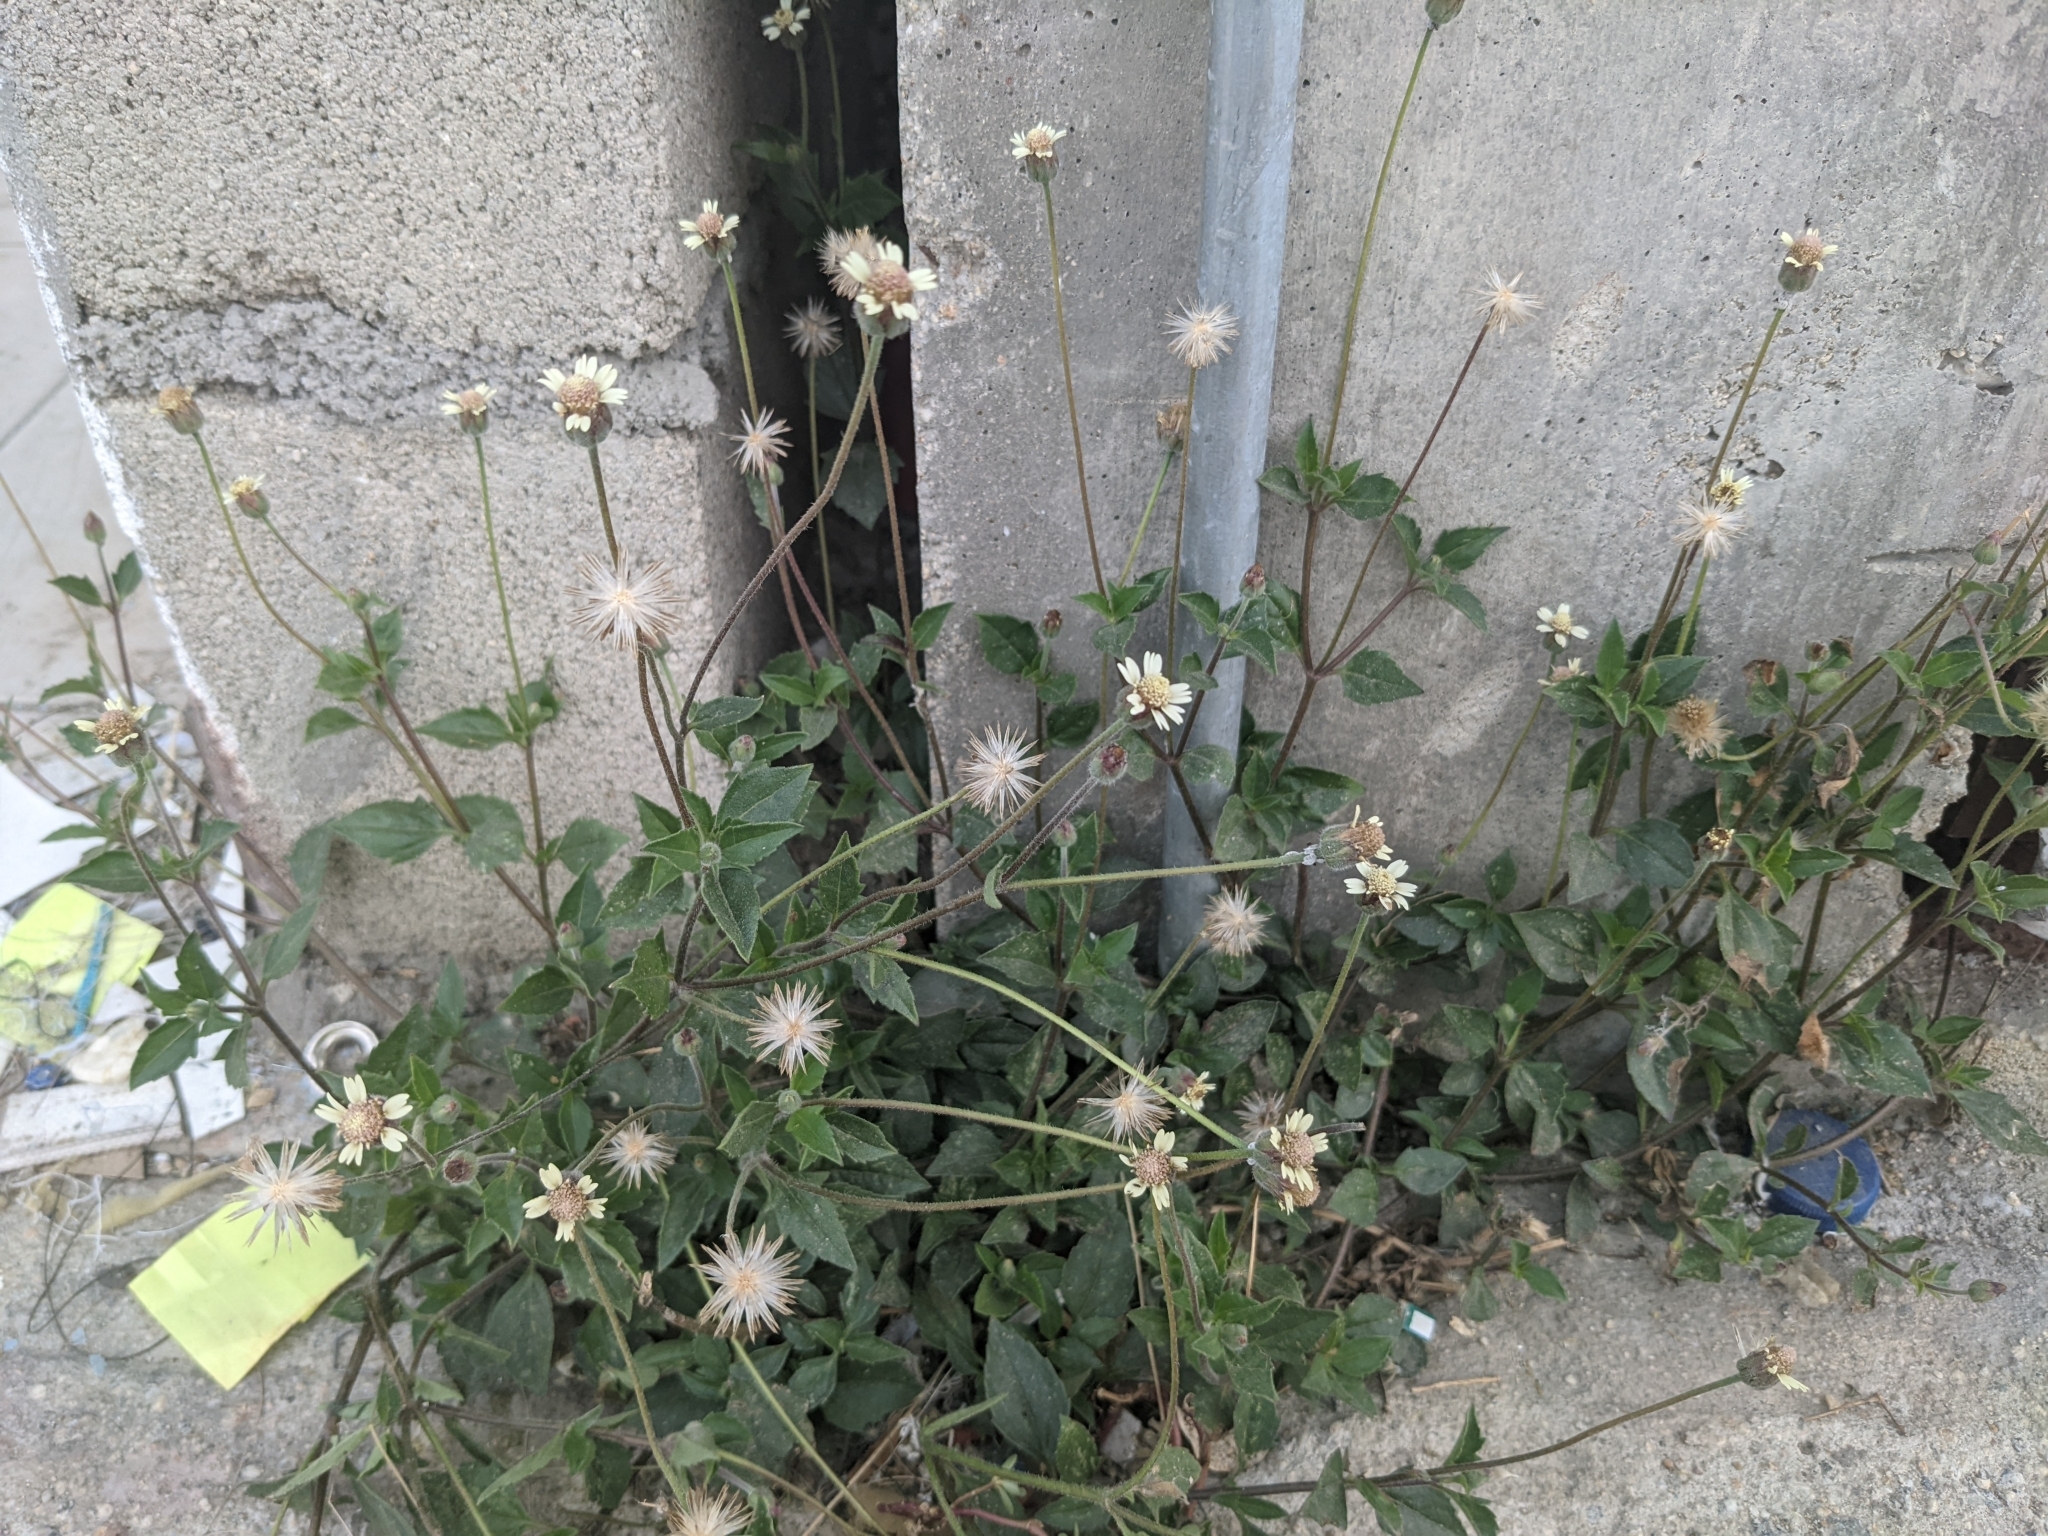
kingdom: Plantae
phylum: Tracheophyta
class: Magnoliopsida
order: Asterales
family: Asteraceae
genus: Tridax
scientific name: Tridax procumbens
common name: Coatbuttons
